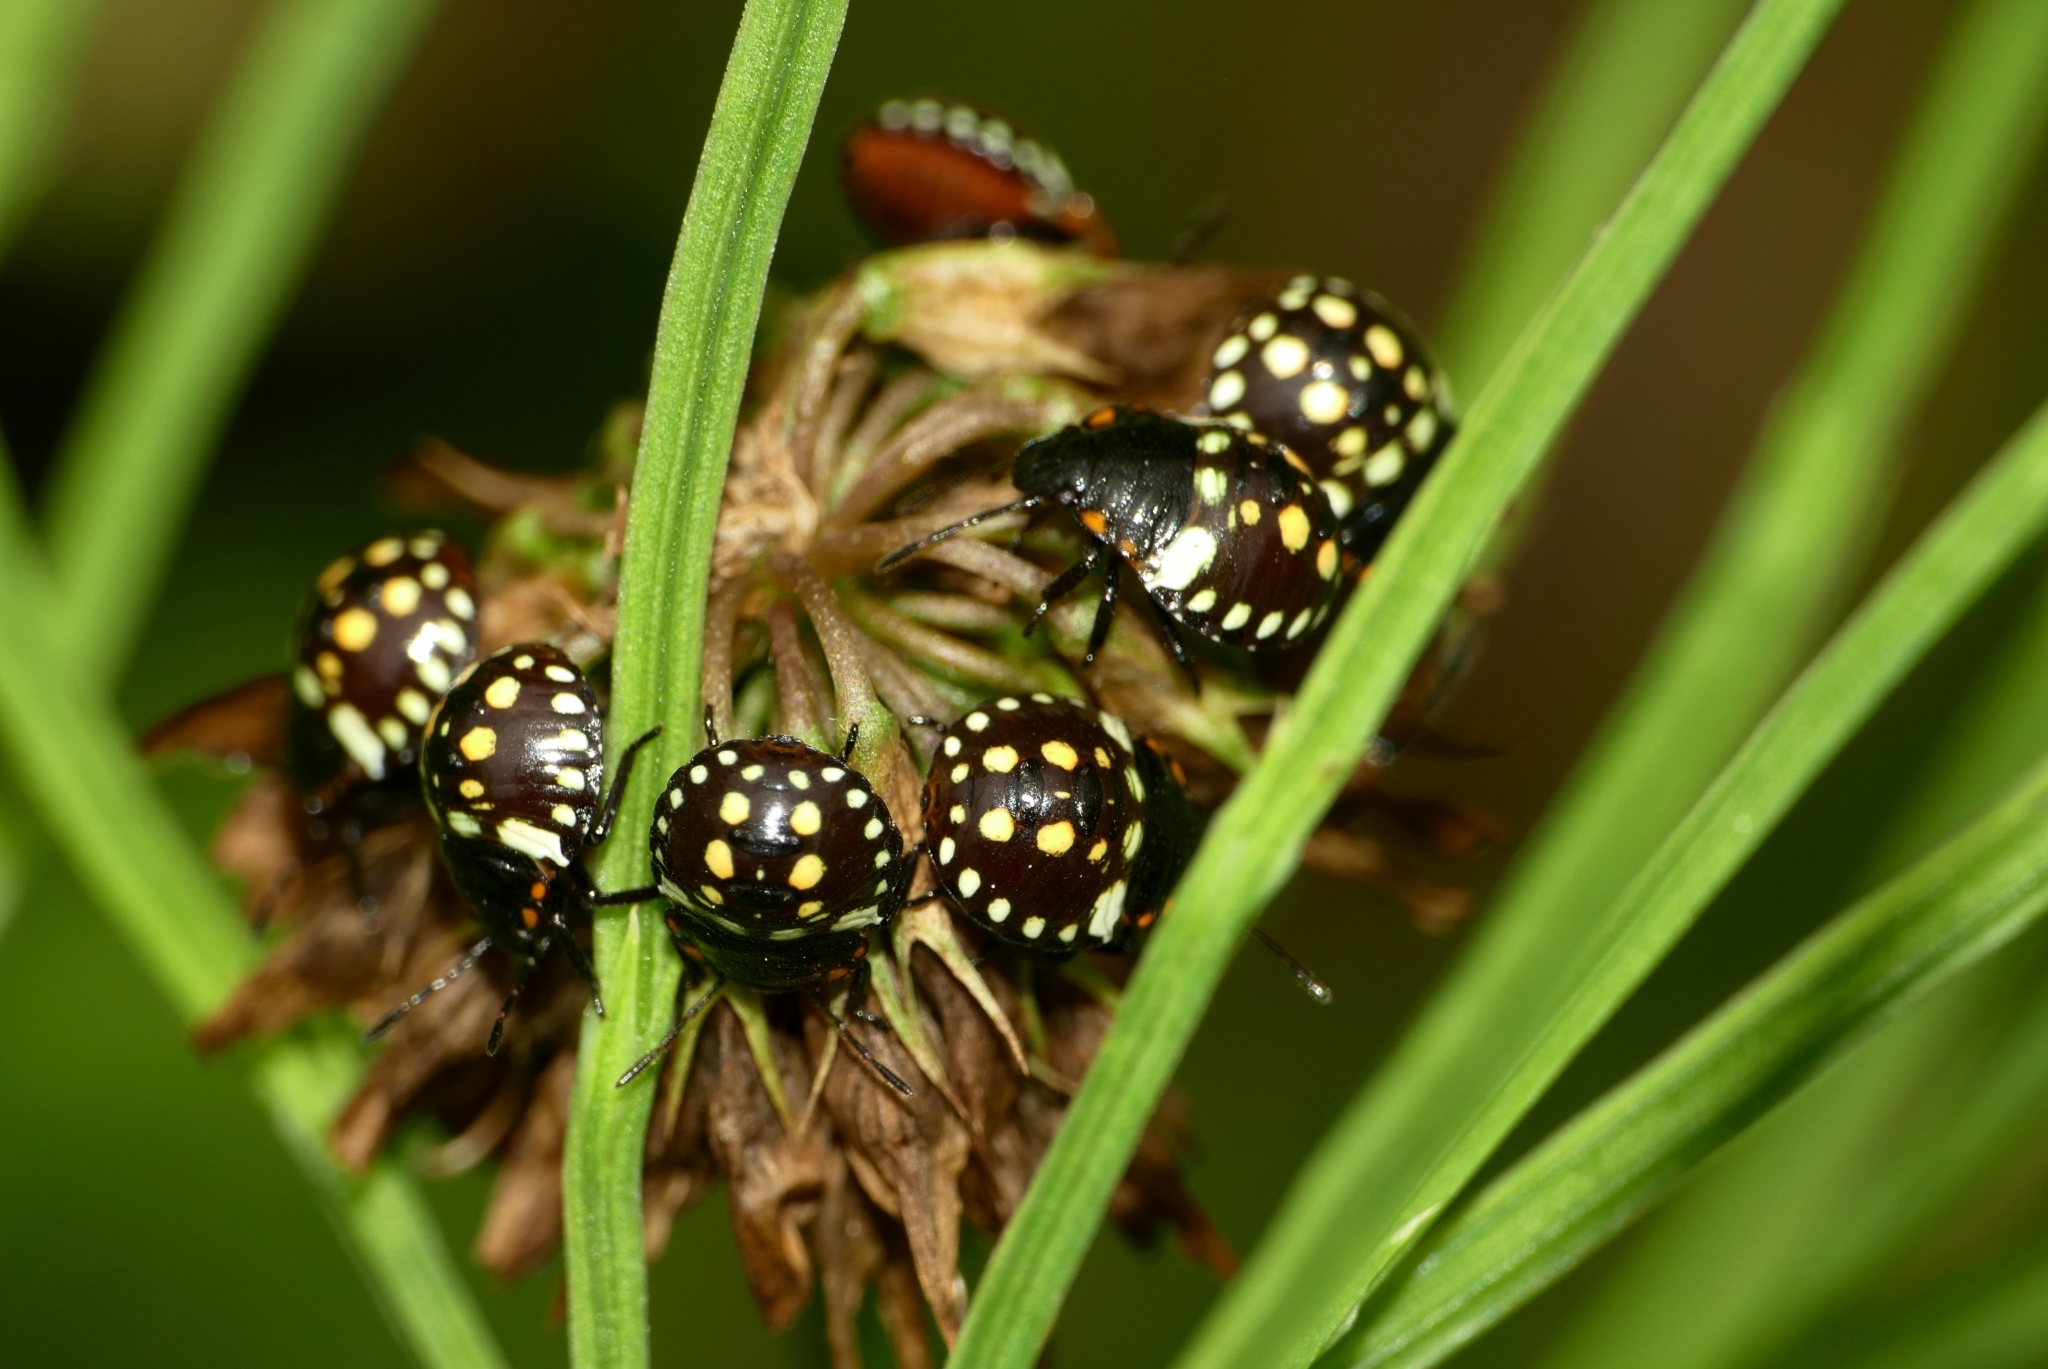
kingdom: Animalia
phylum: Arthropoda
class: Insecta
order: Hemiptera
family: Pentatomidae
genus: Nezara
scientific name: Nezara viridula
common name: Southern green stink bug
